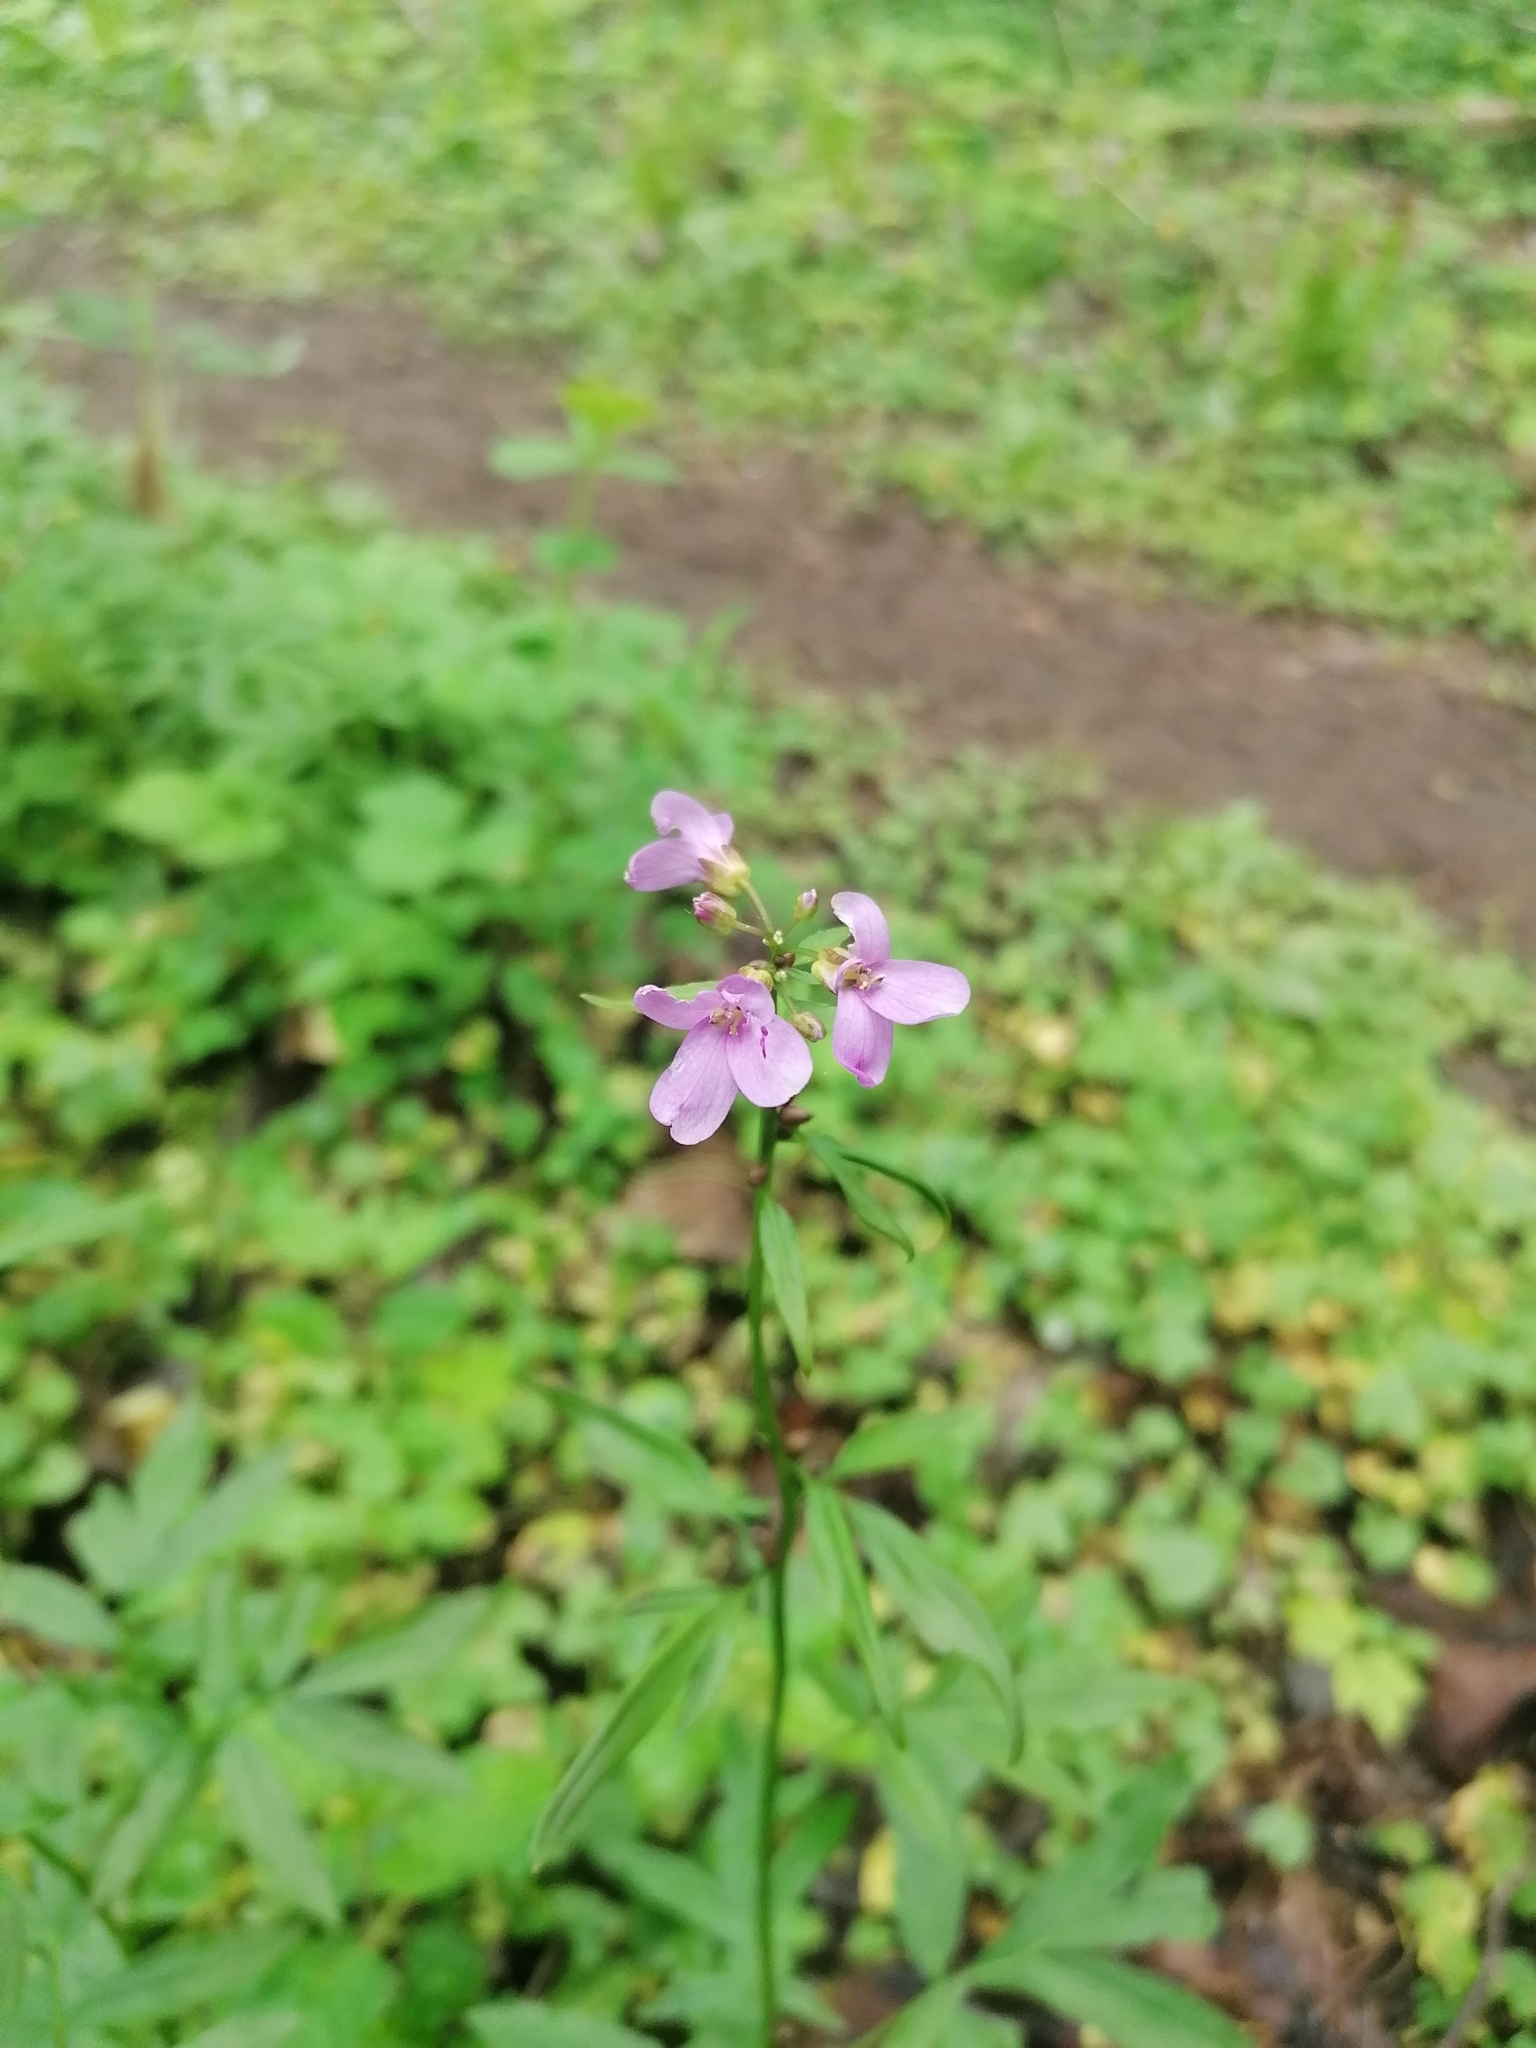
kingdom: Plantae
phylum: Tracheophyta
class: Magnoliopsida
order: Brassicales
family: Brassicaceae
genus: Cardamine
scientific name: Cardamine bulbifera
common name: Coralroot bittercress
